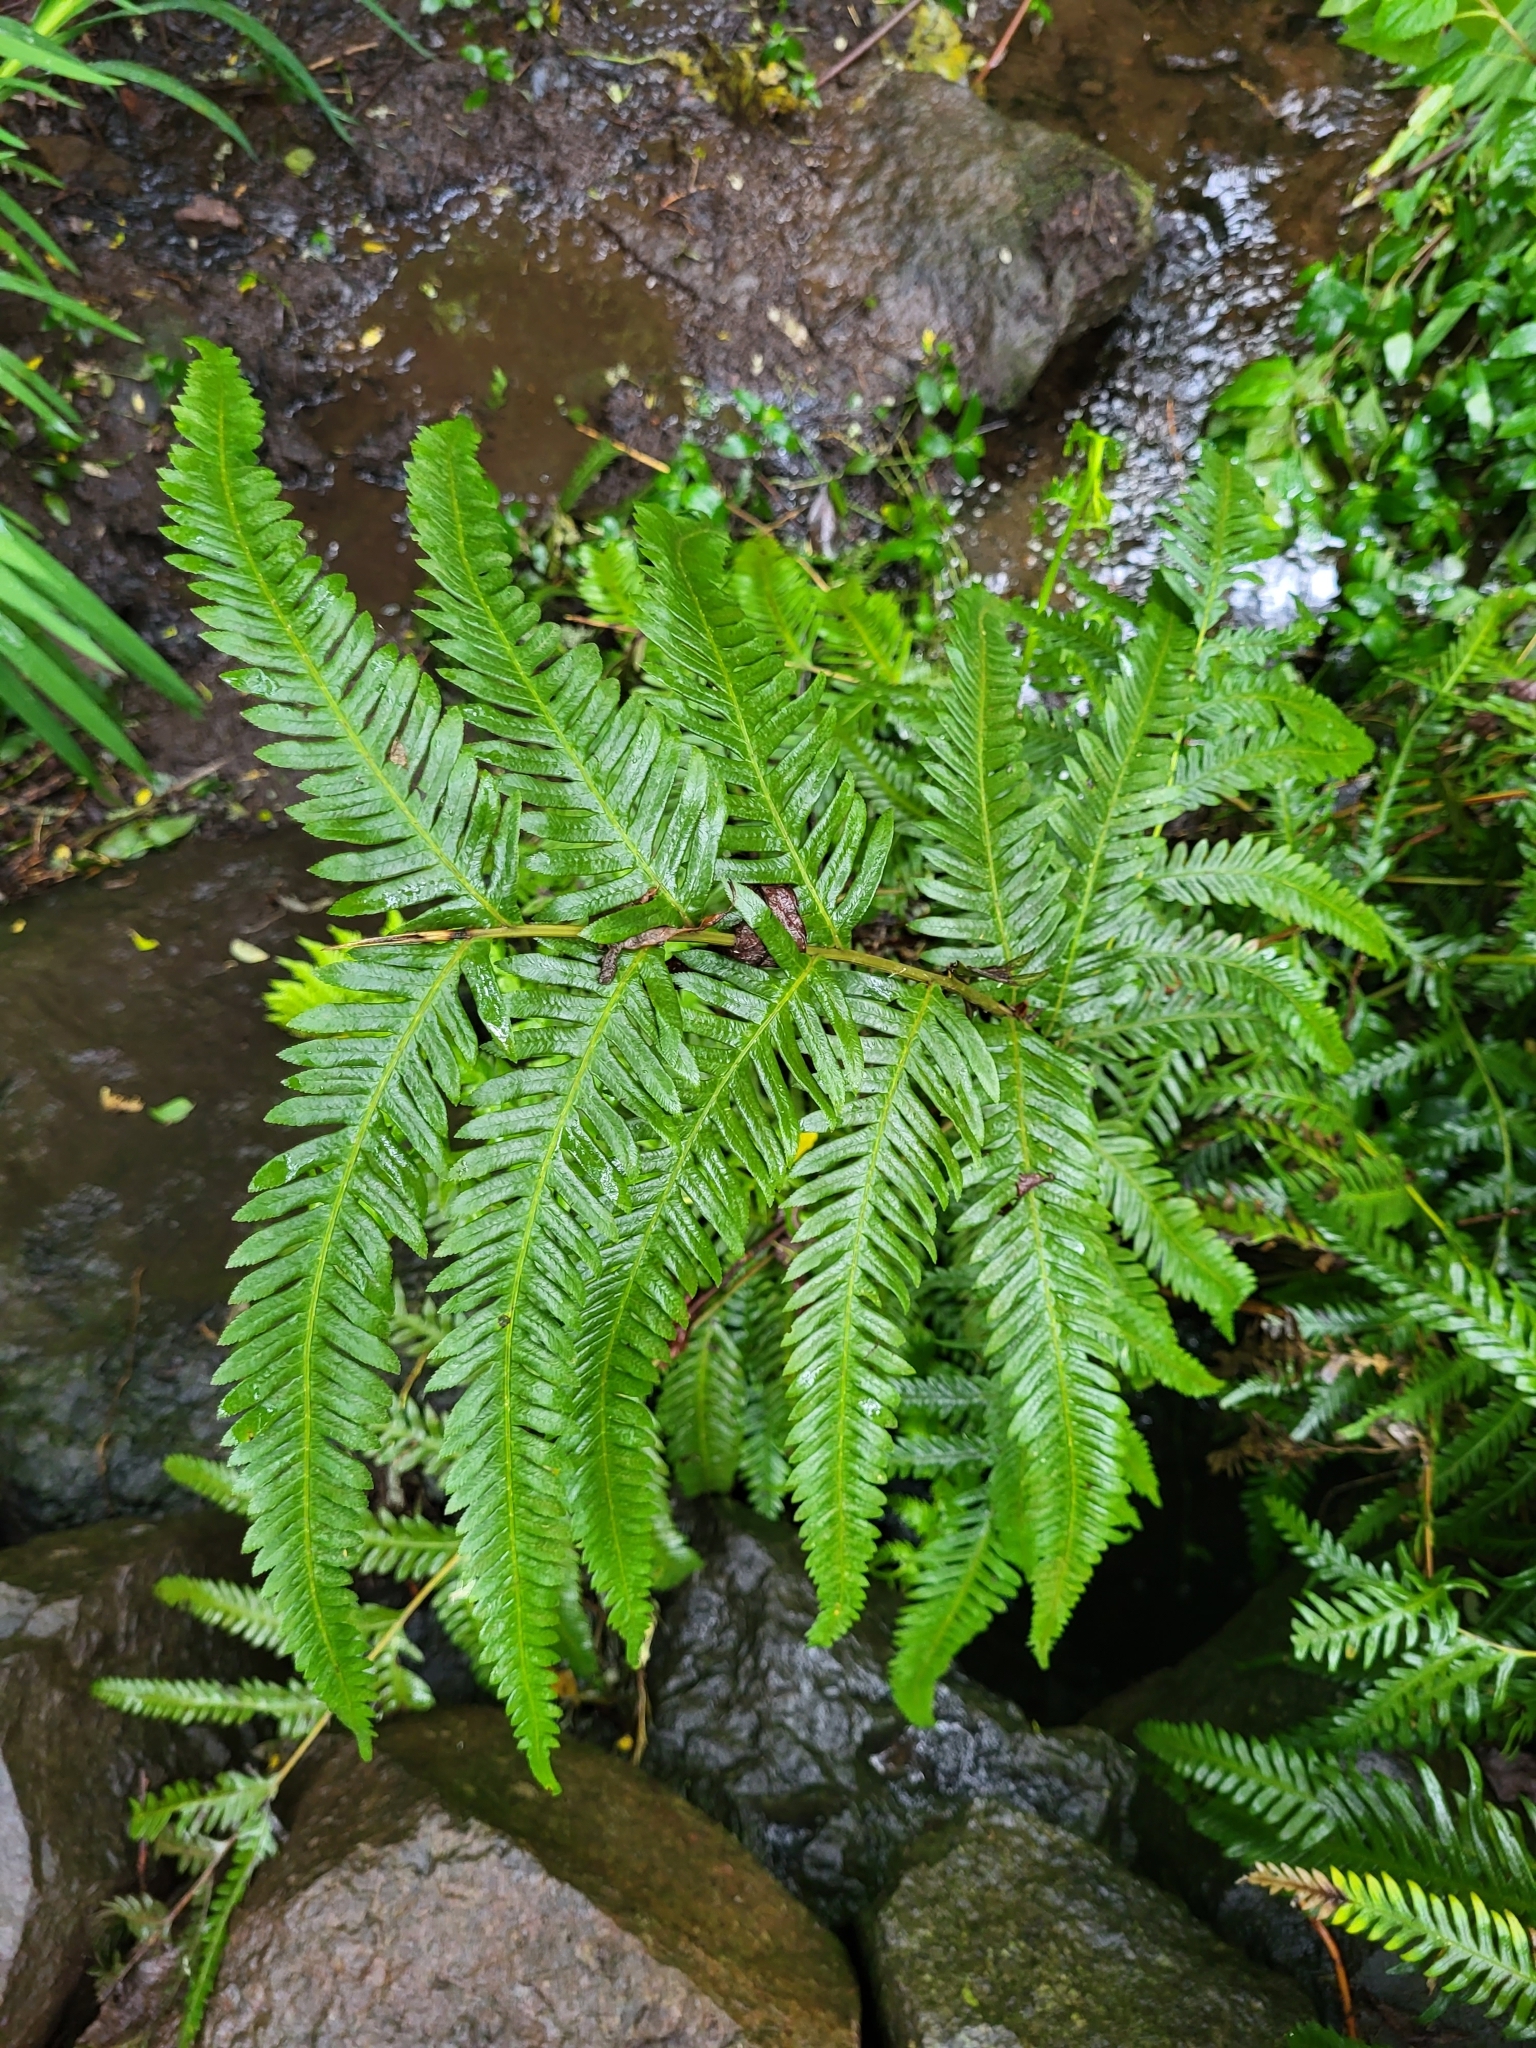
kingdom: Plantae
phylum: Tracheophyta
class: Polypodiopsida
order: Polypodiales
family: Pteridaceae
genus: Pteris
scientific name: Pteris incompleta
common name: Laurisilva brake
